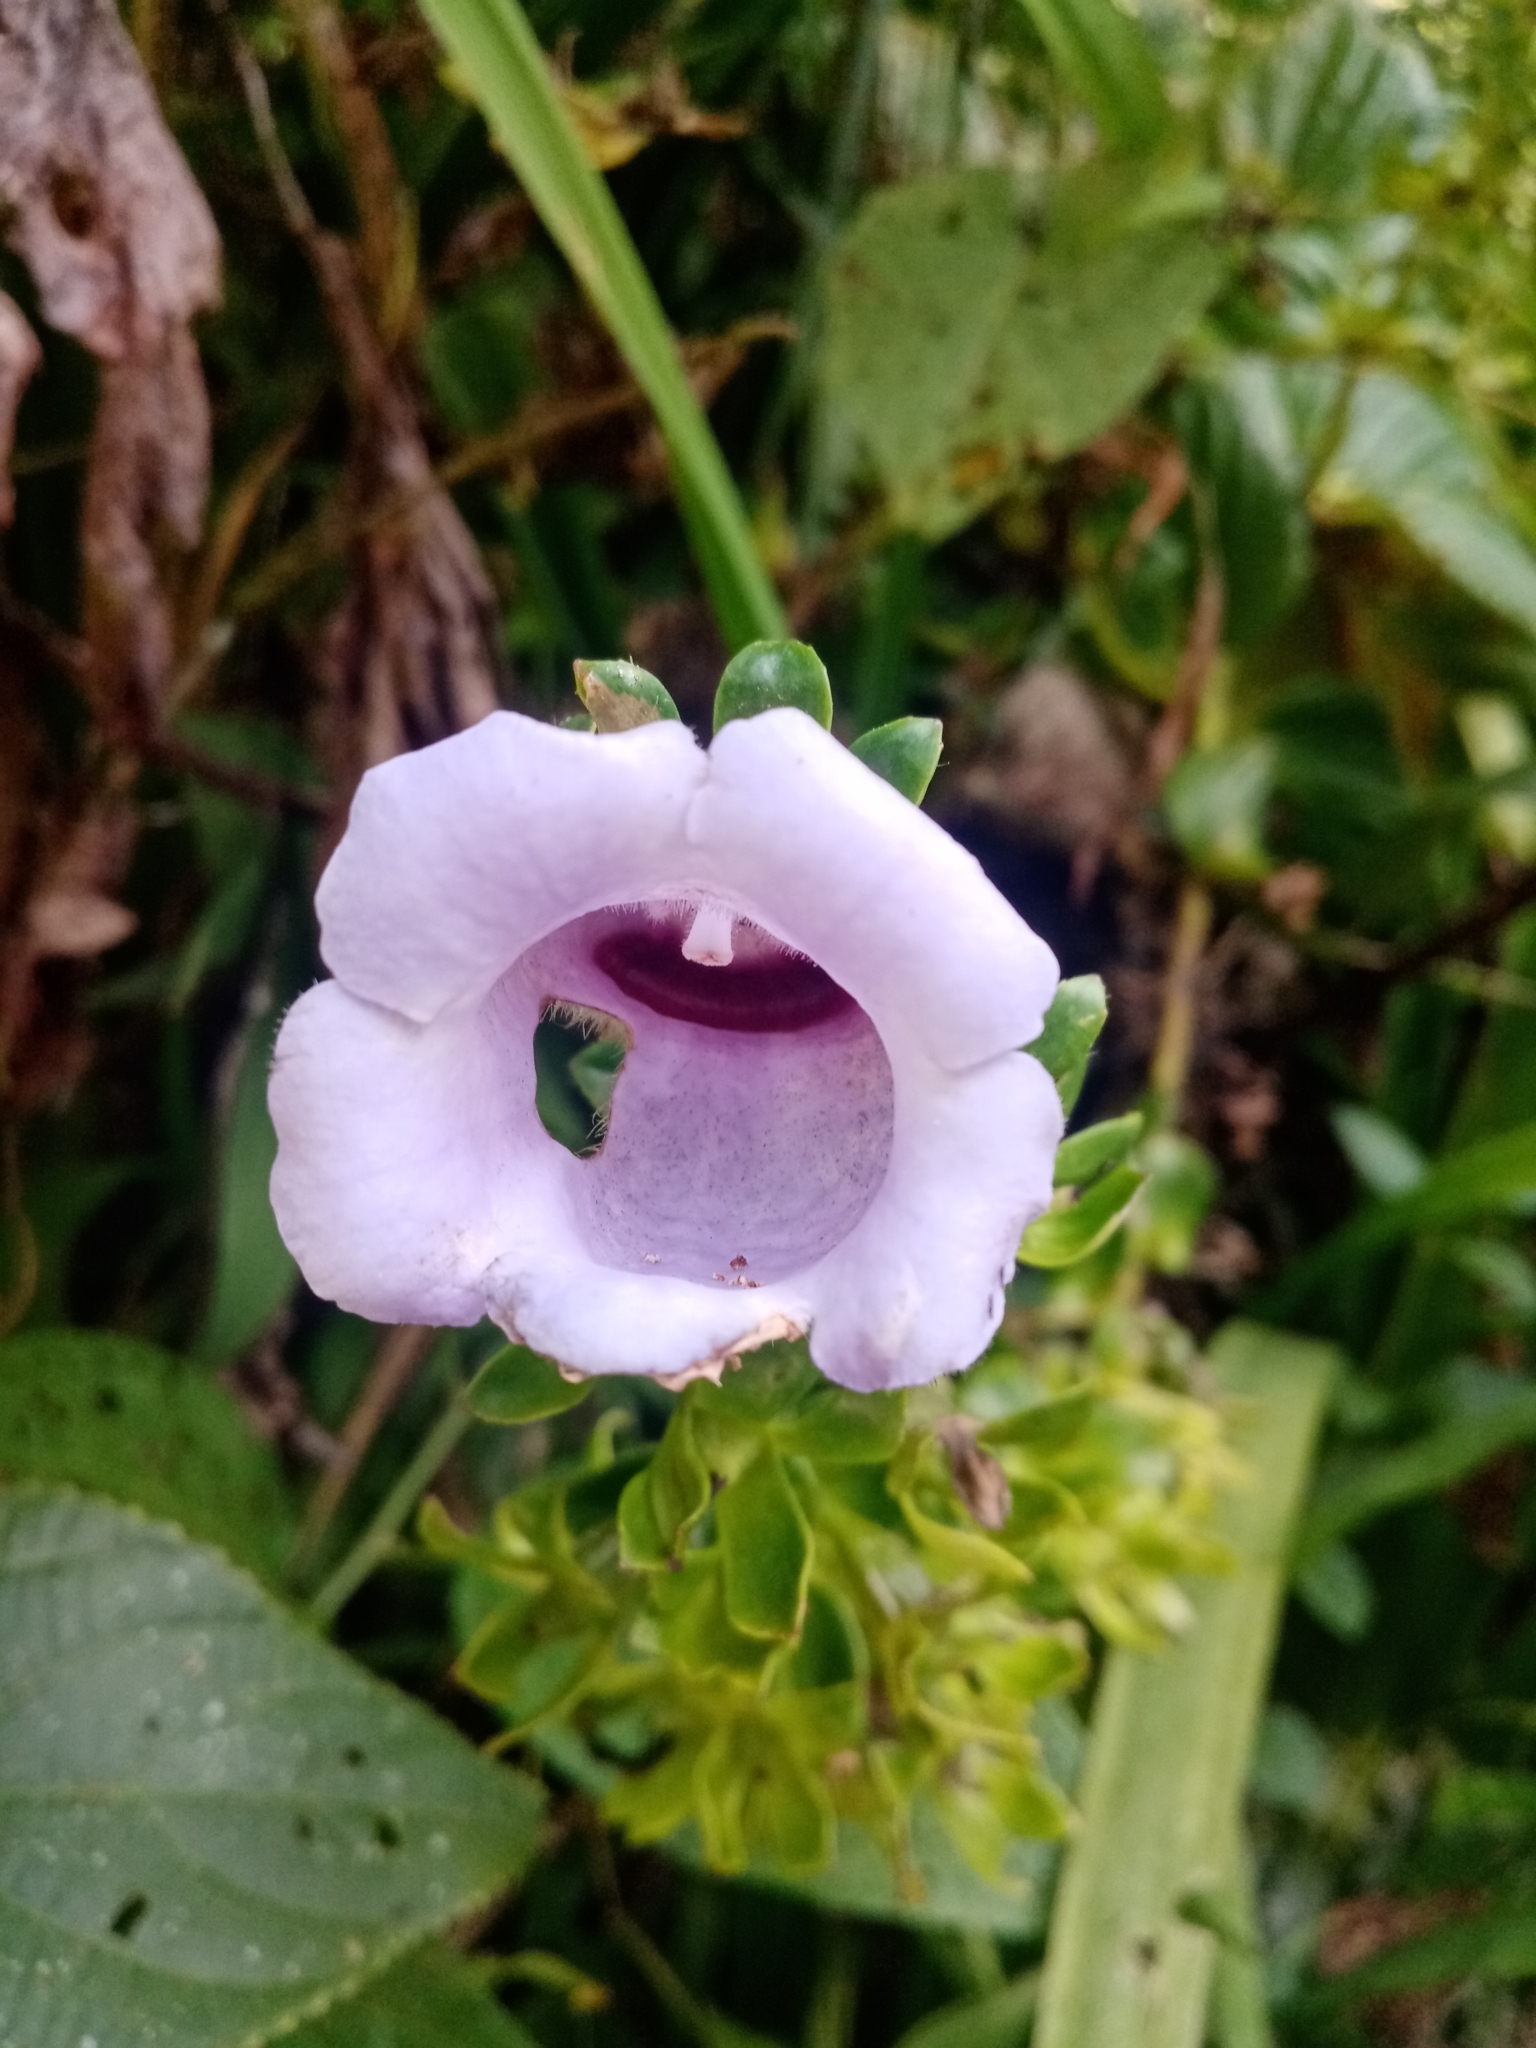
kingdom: Plantae
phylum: Tracheophyta
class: Magnoliopsida
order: Lamiales
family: Gesneriaceae
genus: Gloxinia
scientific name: Gloxinia perennis
